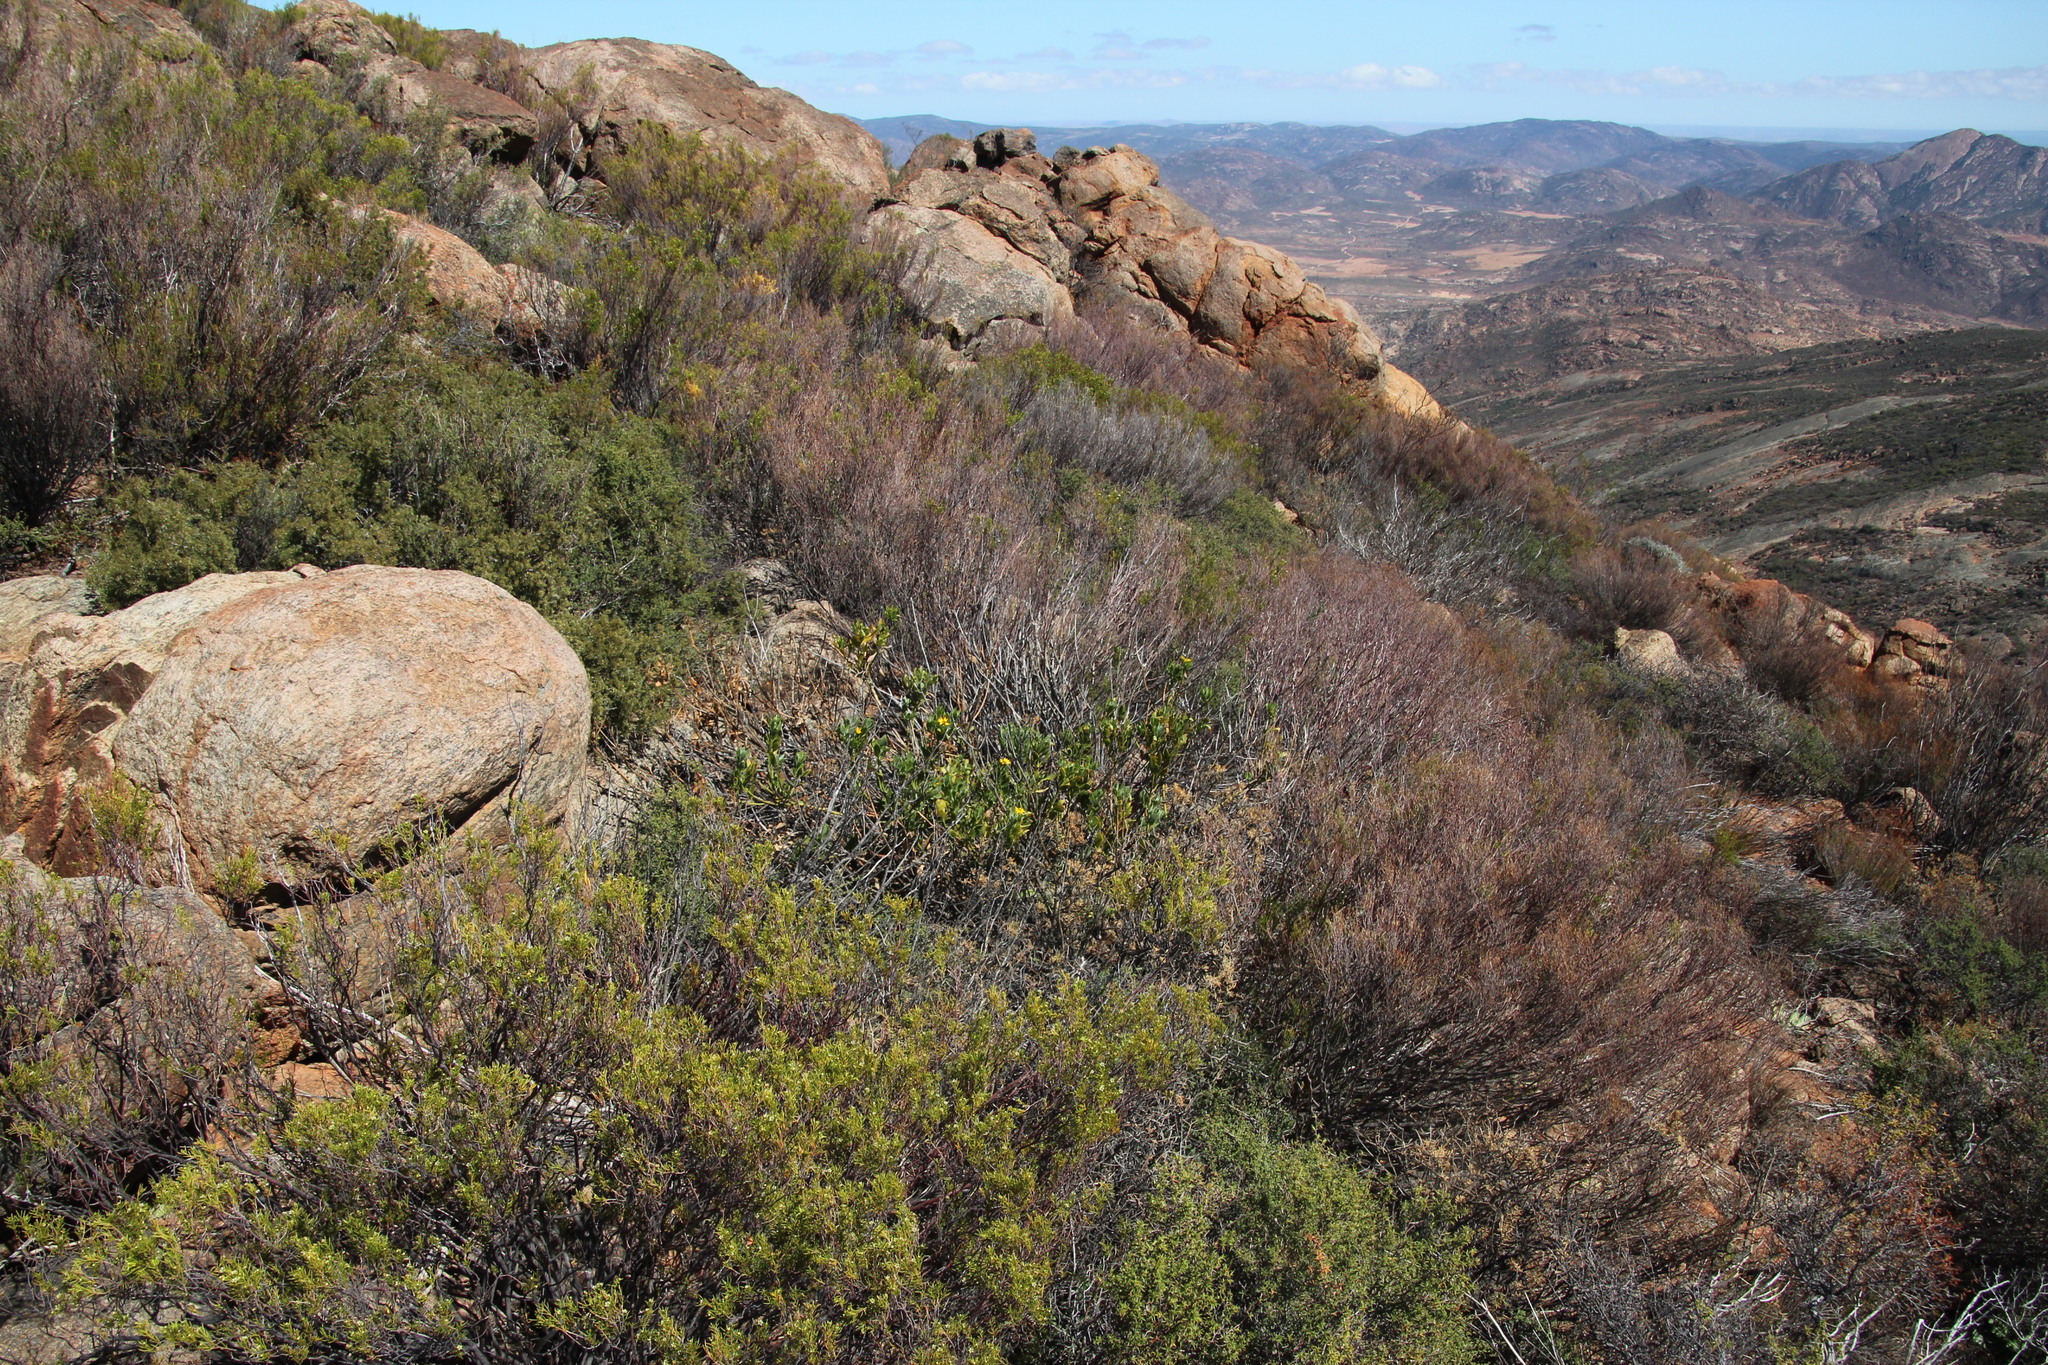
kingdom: Plantae
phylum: Tracheophyta
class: Magnoliopsida
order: Asterales
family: Asteraceae
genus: Osteospermum
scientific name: Osteospermum moniliferum
